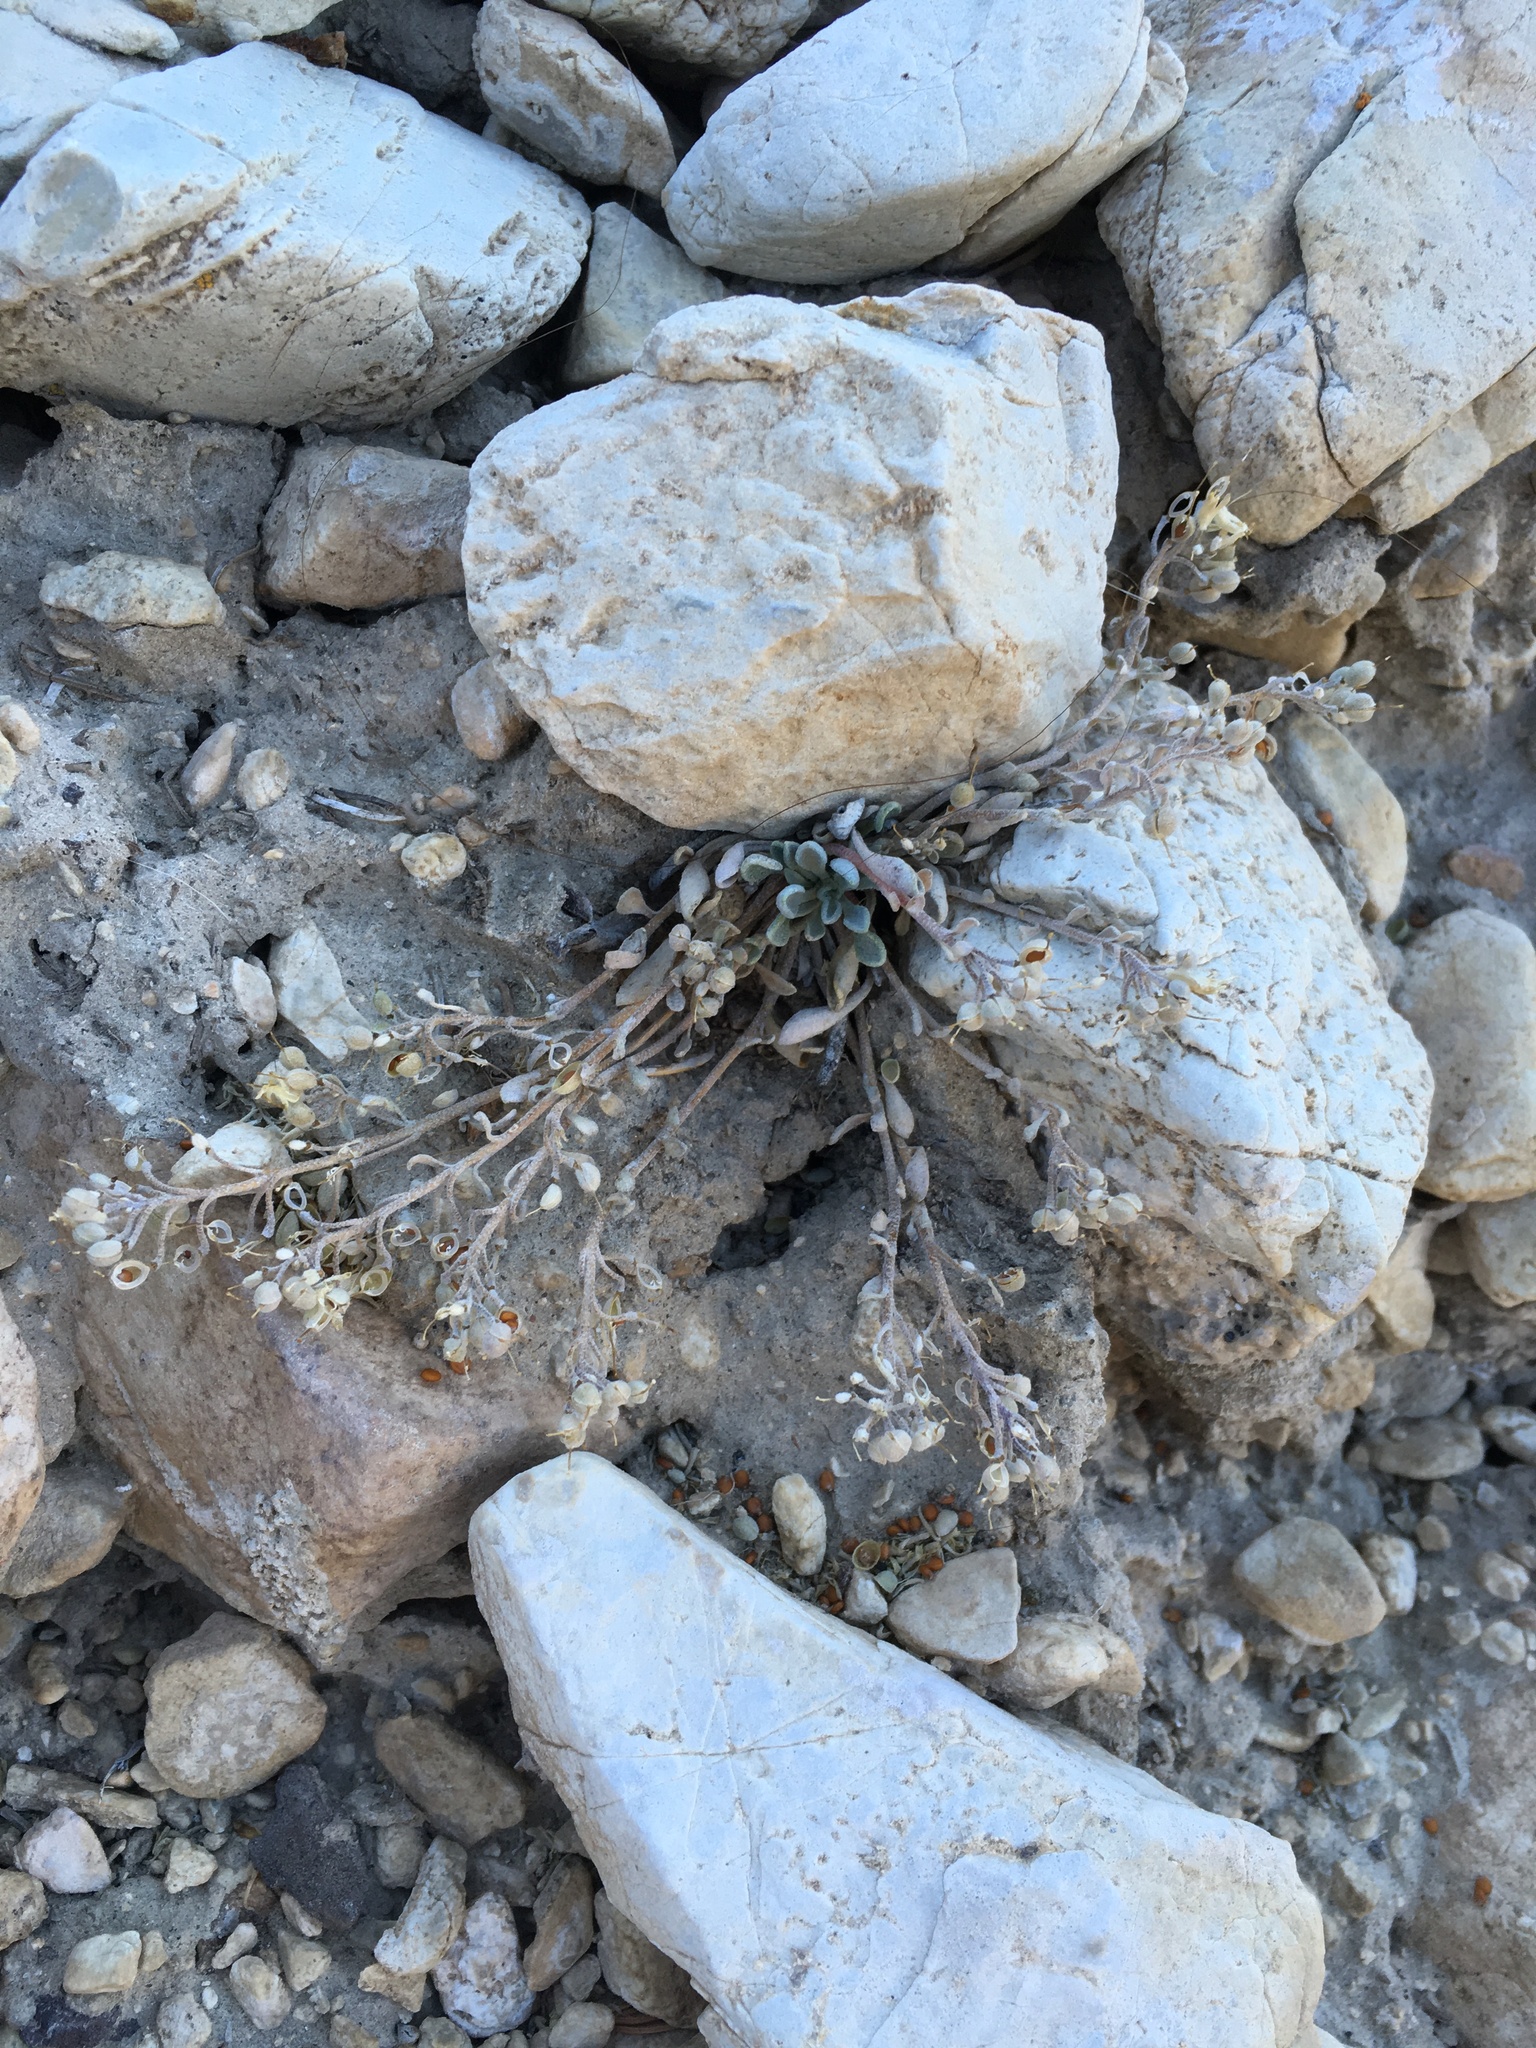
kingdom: Plantae
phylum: Tracheophyta
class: Magnoliopsida
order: Brassicales
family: Brassicaceae
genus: Physaria
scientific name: Physaria kingii
